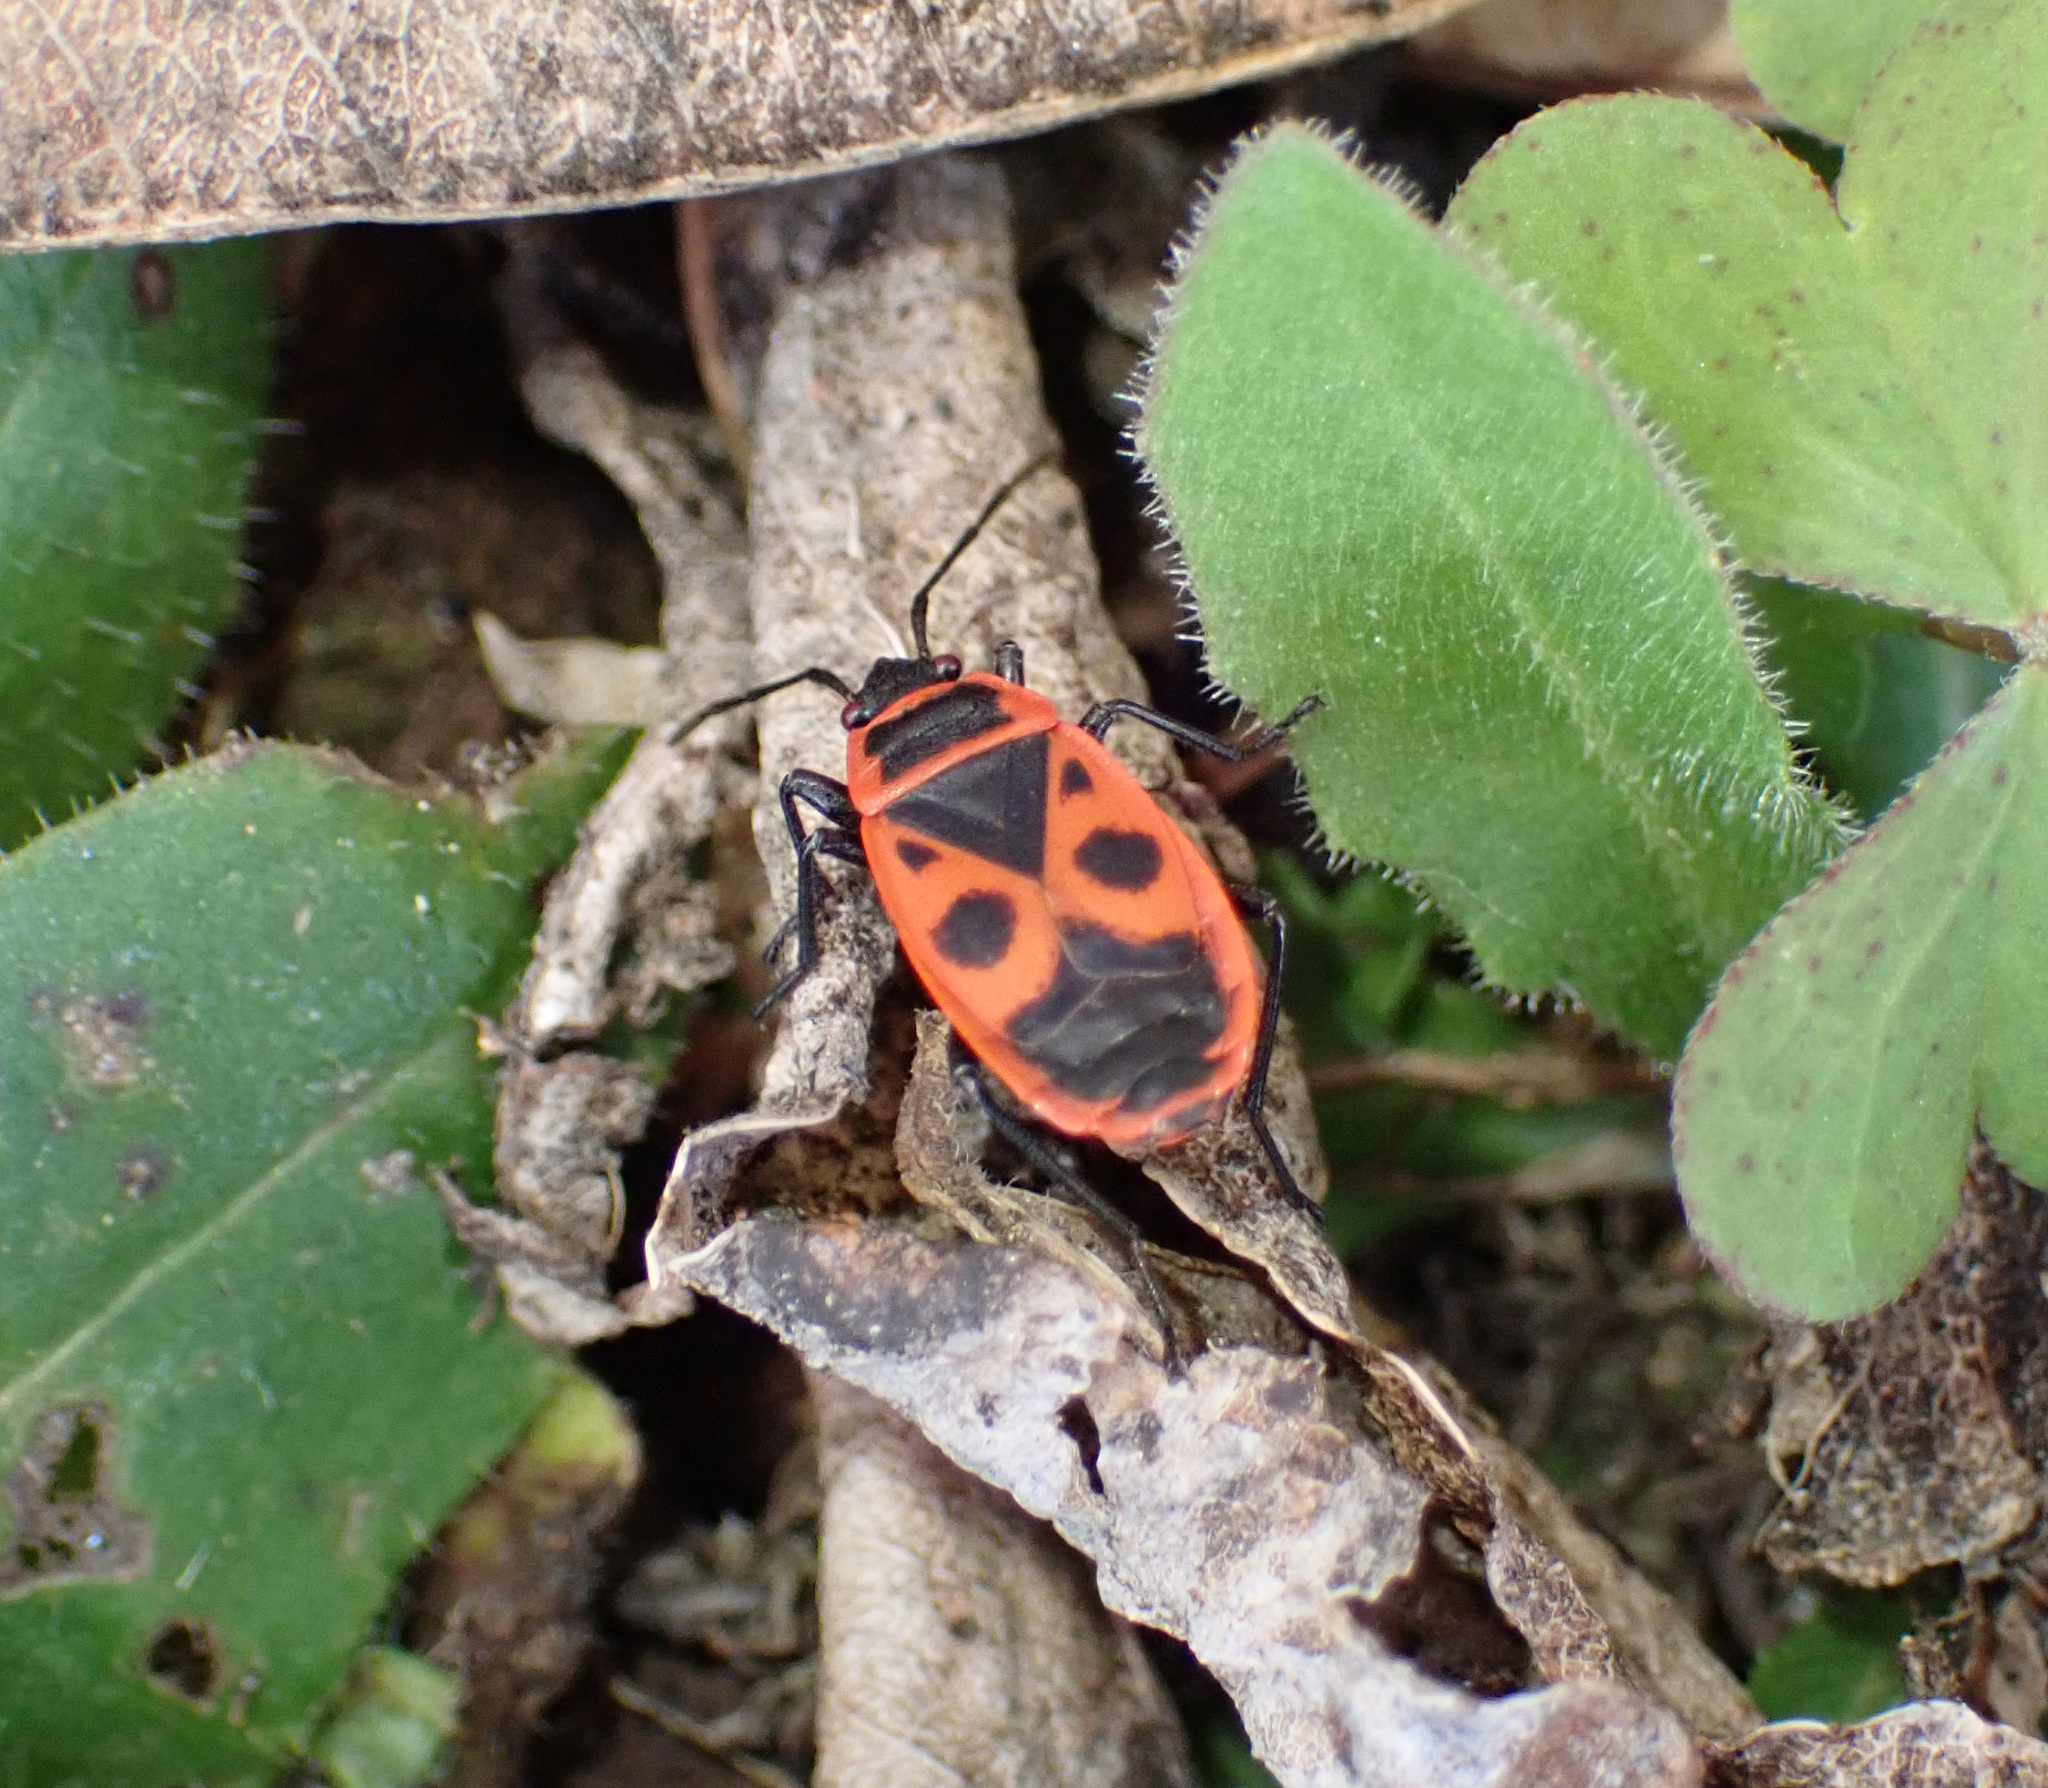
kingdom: Animalia
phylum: Arthropoda
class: Insecta
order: Hemiptera
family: Pyrrhocoridae
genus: Pyrrhocoris
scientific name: Pyrrhocoris apterus
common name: Firebug
